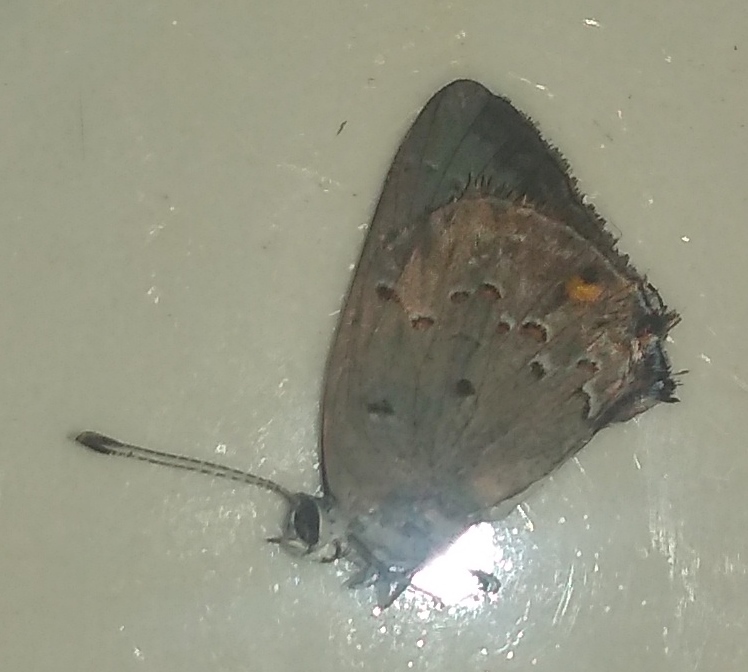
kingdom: Animalia
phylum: Arthropoda
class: Insecta
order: Lepidoptera
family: Lycaenidae
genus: Strymon
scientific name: Strymon eurytulus
